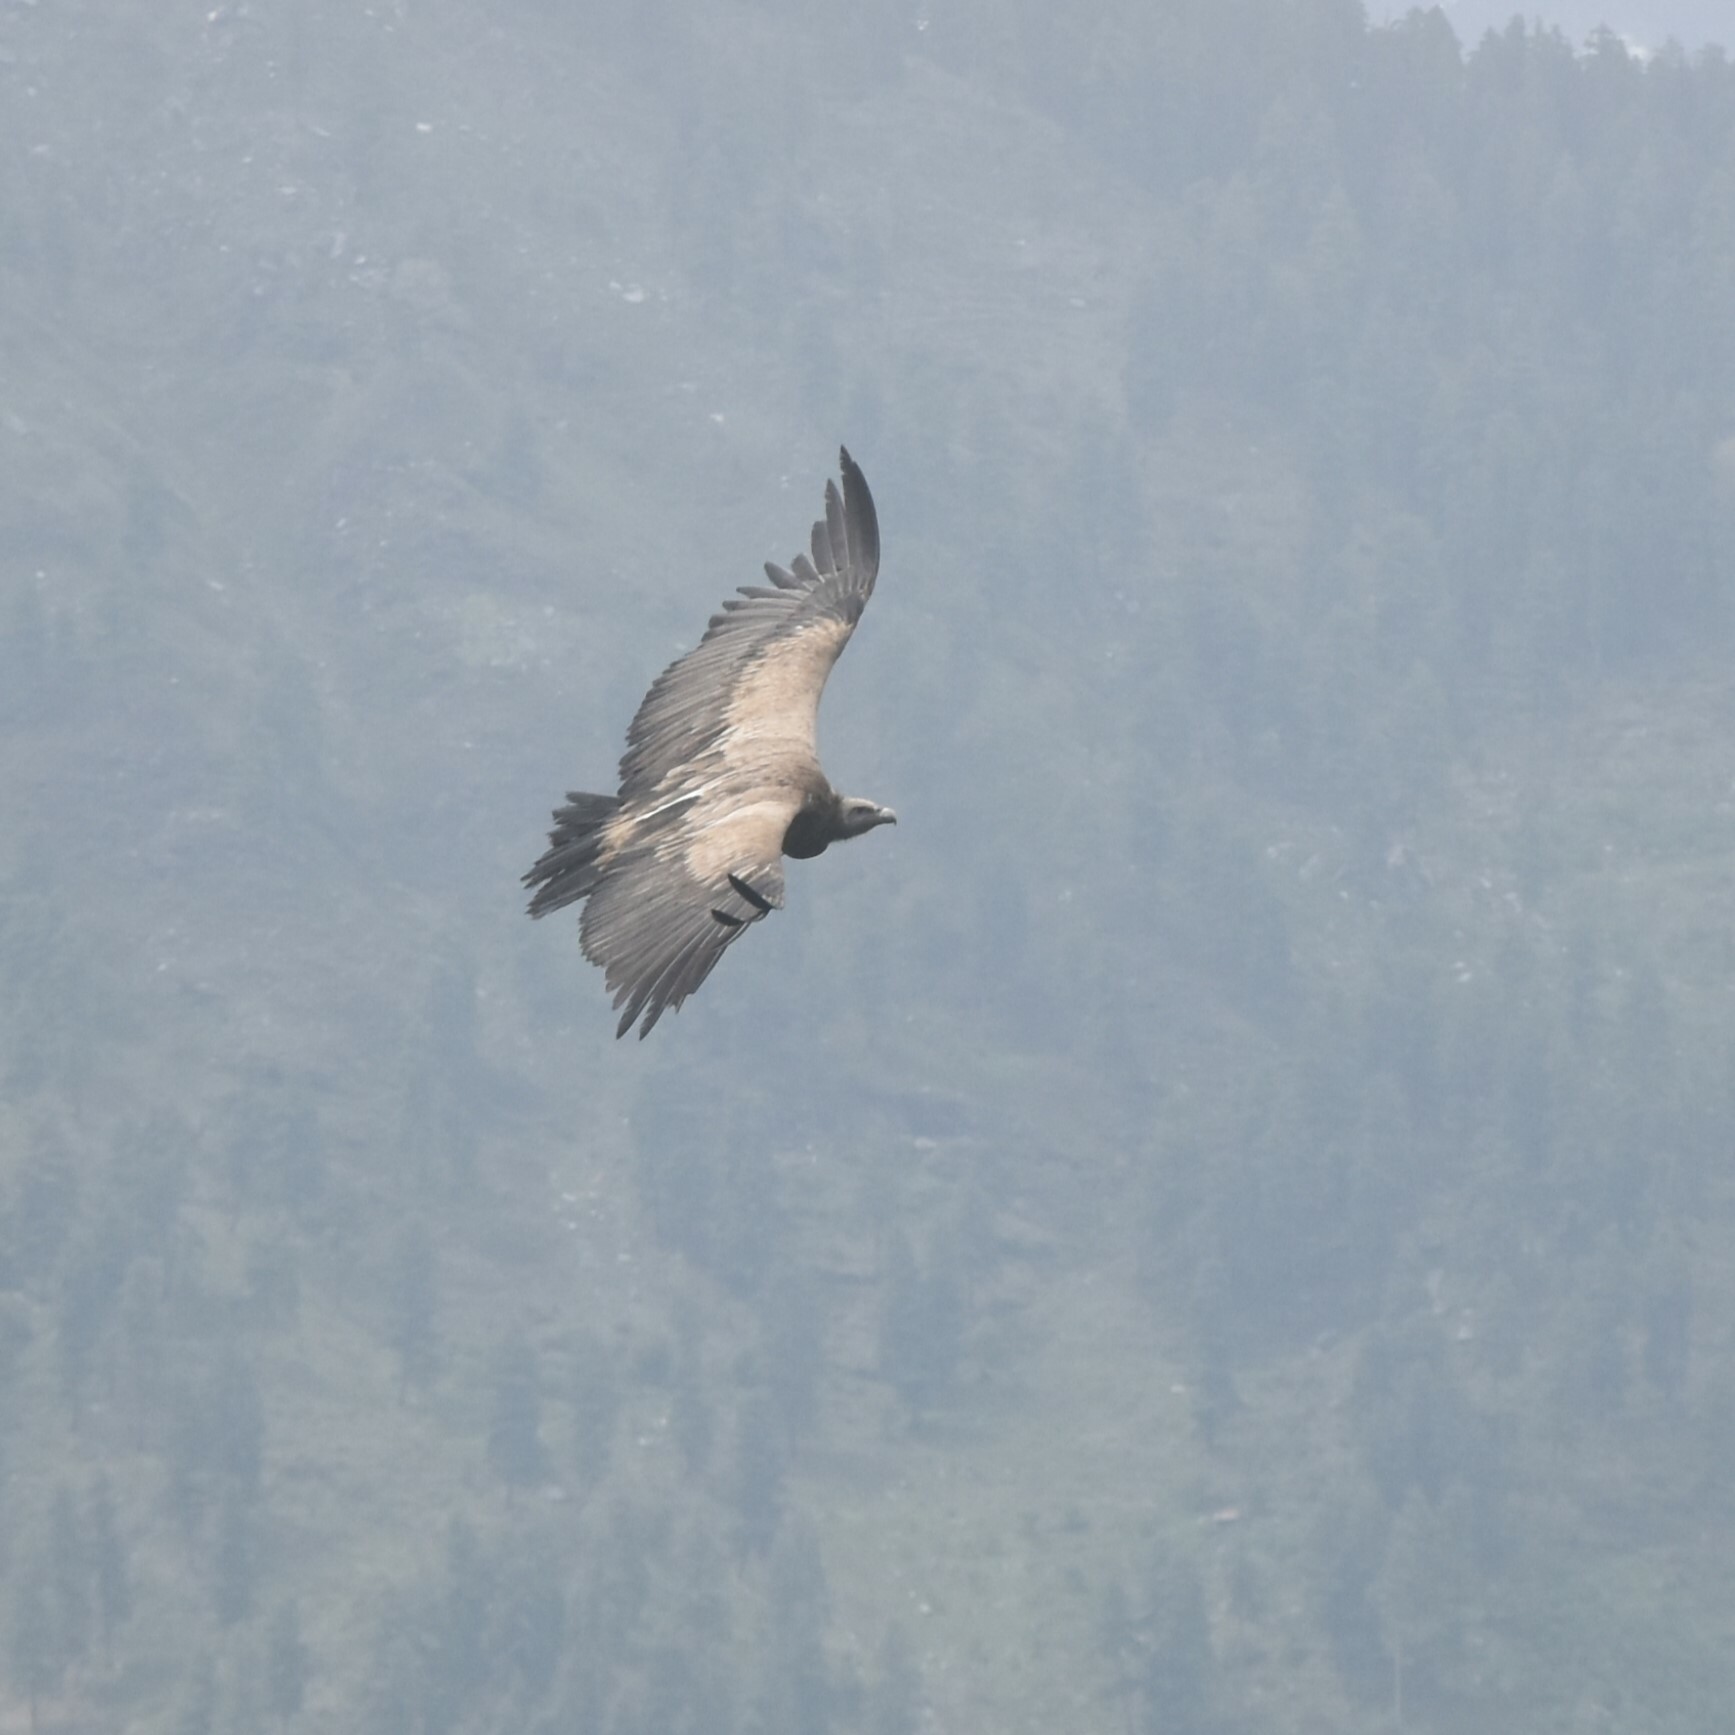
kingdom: Animalia
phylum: Chordata
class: Aves
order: Accipitriformes
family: Accipitridae
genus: Gyps
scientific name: Gyps fulvus
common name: Griffon vulture
